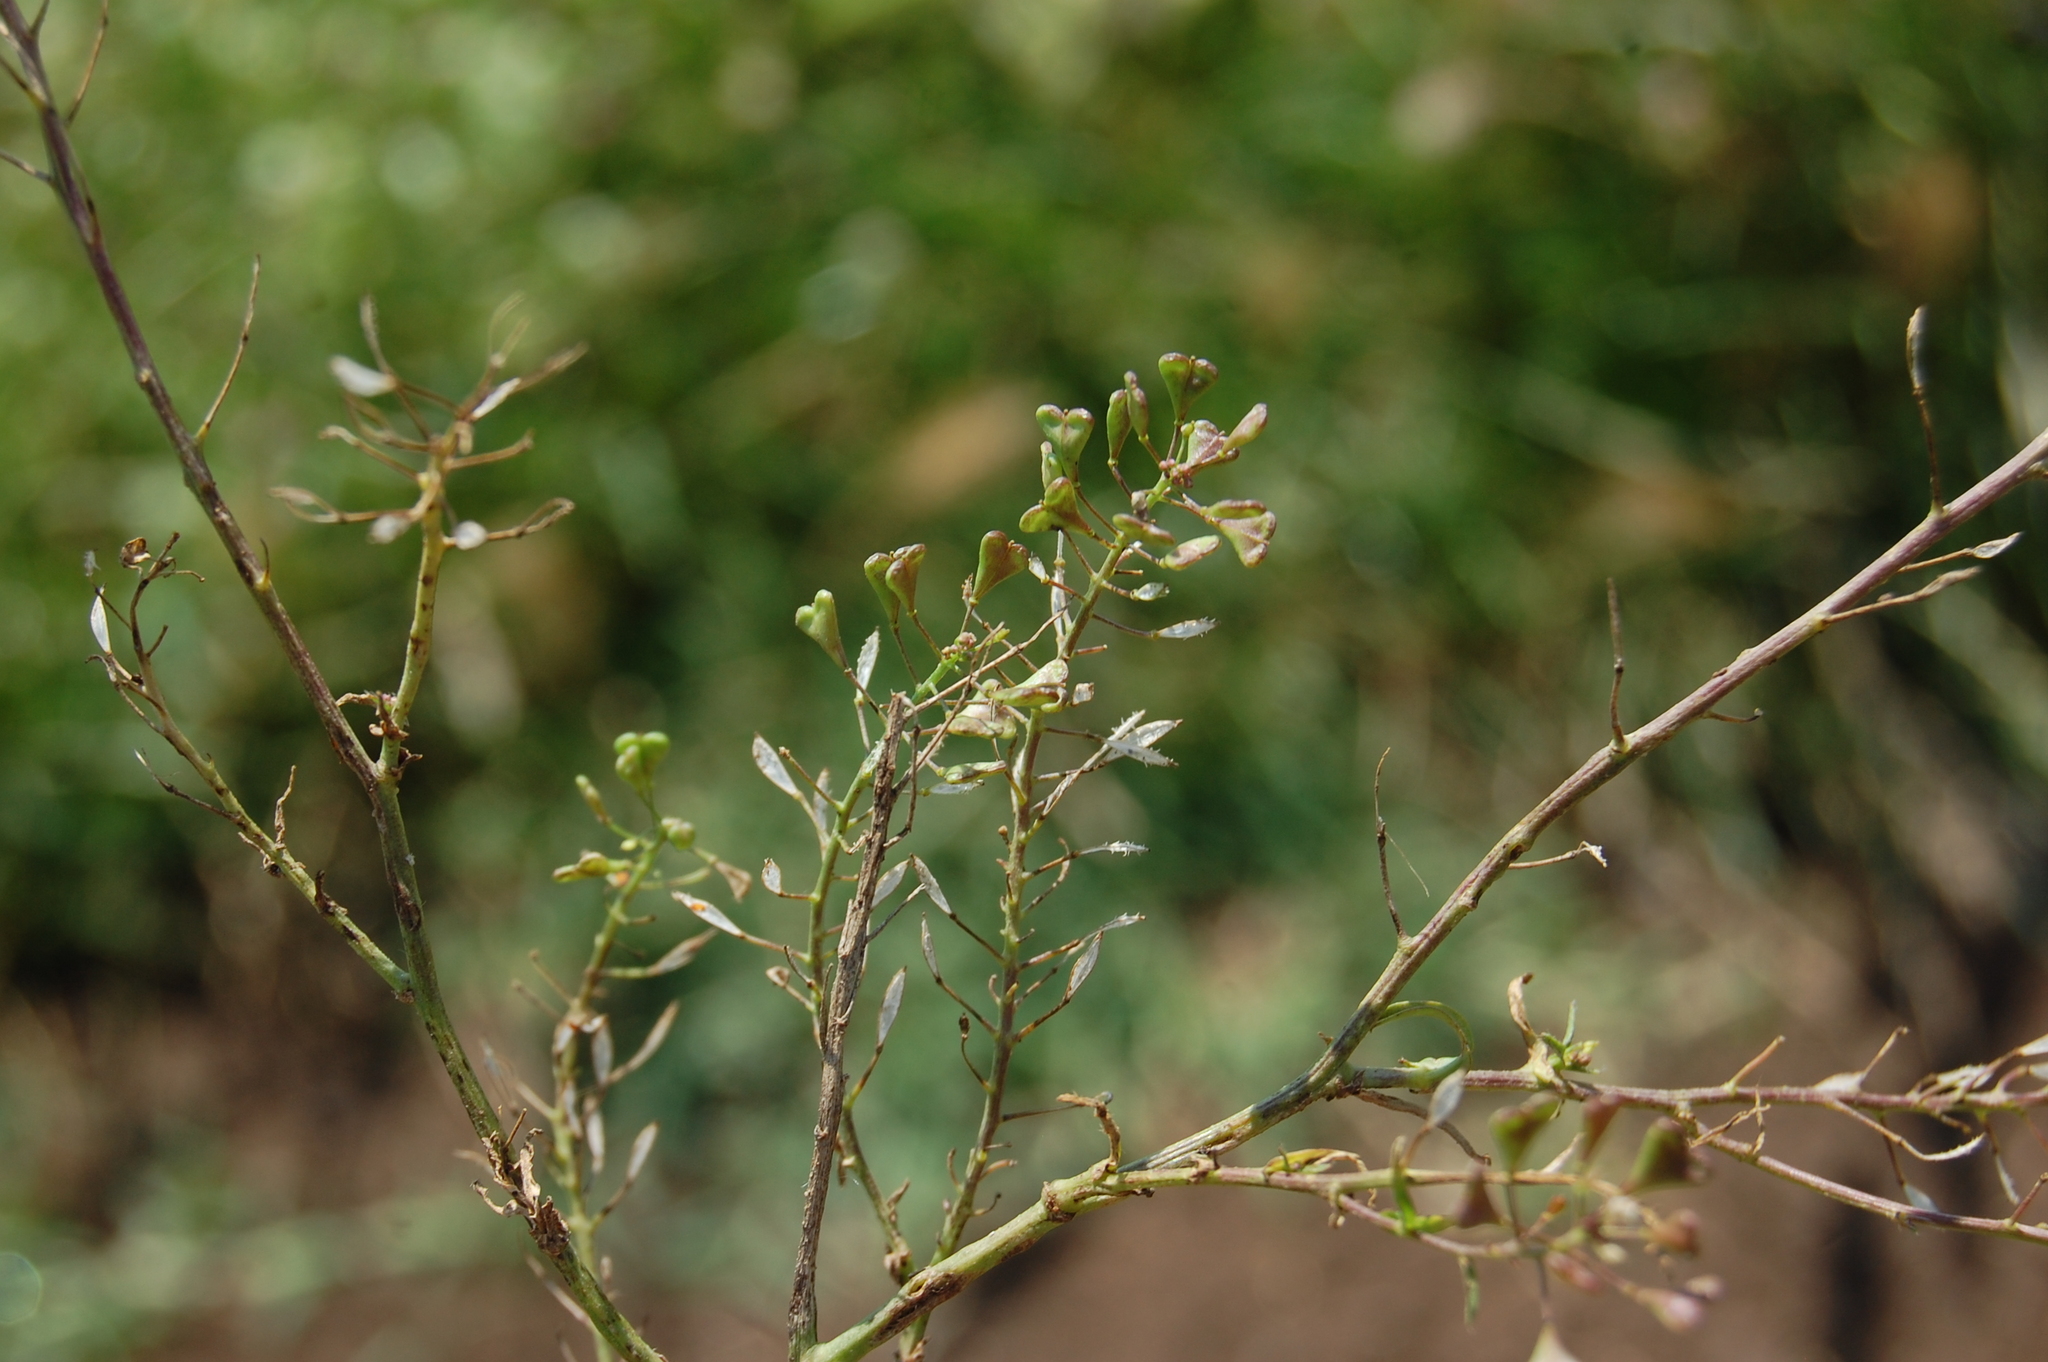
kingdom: Plantae
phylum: Tracheophyta
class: Magnoliopsida
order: Brassicales
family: Brassicaceae
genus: Capsella
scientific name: Capsella bursa-pastoris
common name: Shepherd's purse
